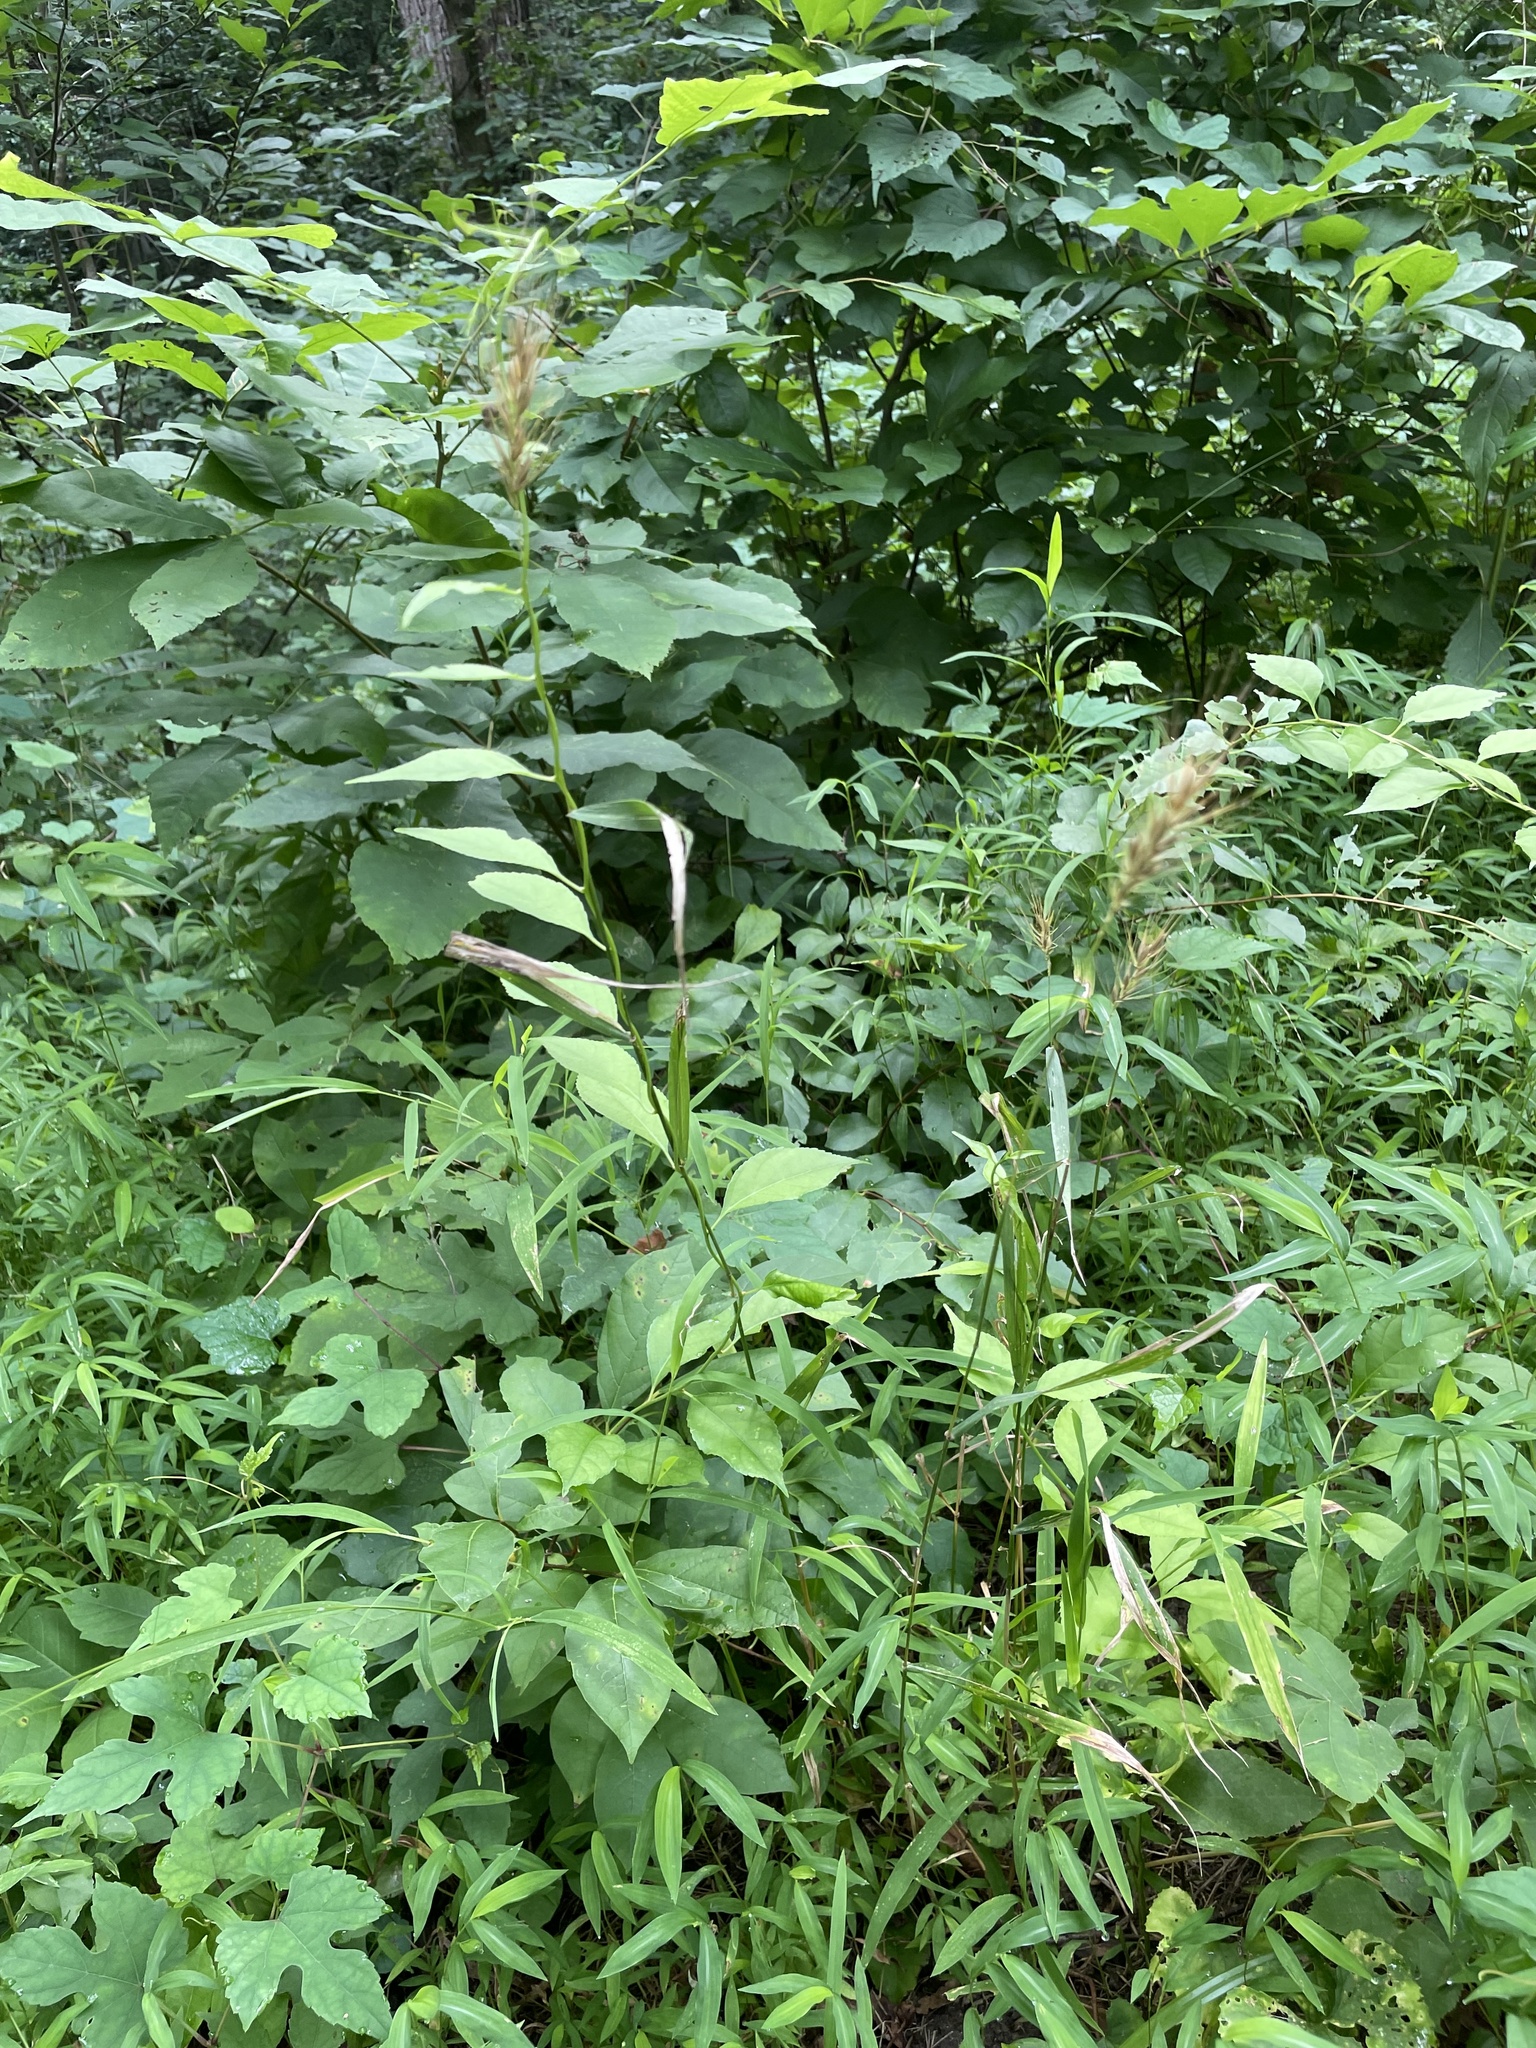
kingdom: Plantae
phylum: Tracheophyta
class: Liliopsida
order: Poales
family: Poaceae
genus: Elymus
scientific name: Elymus hystrix
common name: Bottlebrush grass
